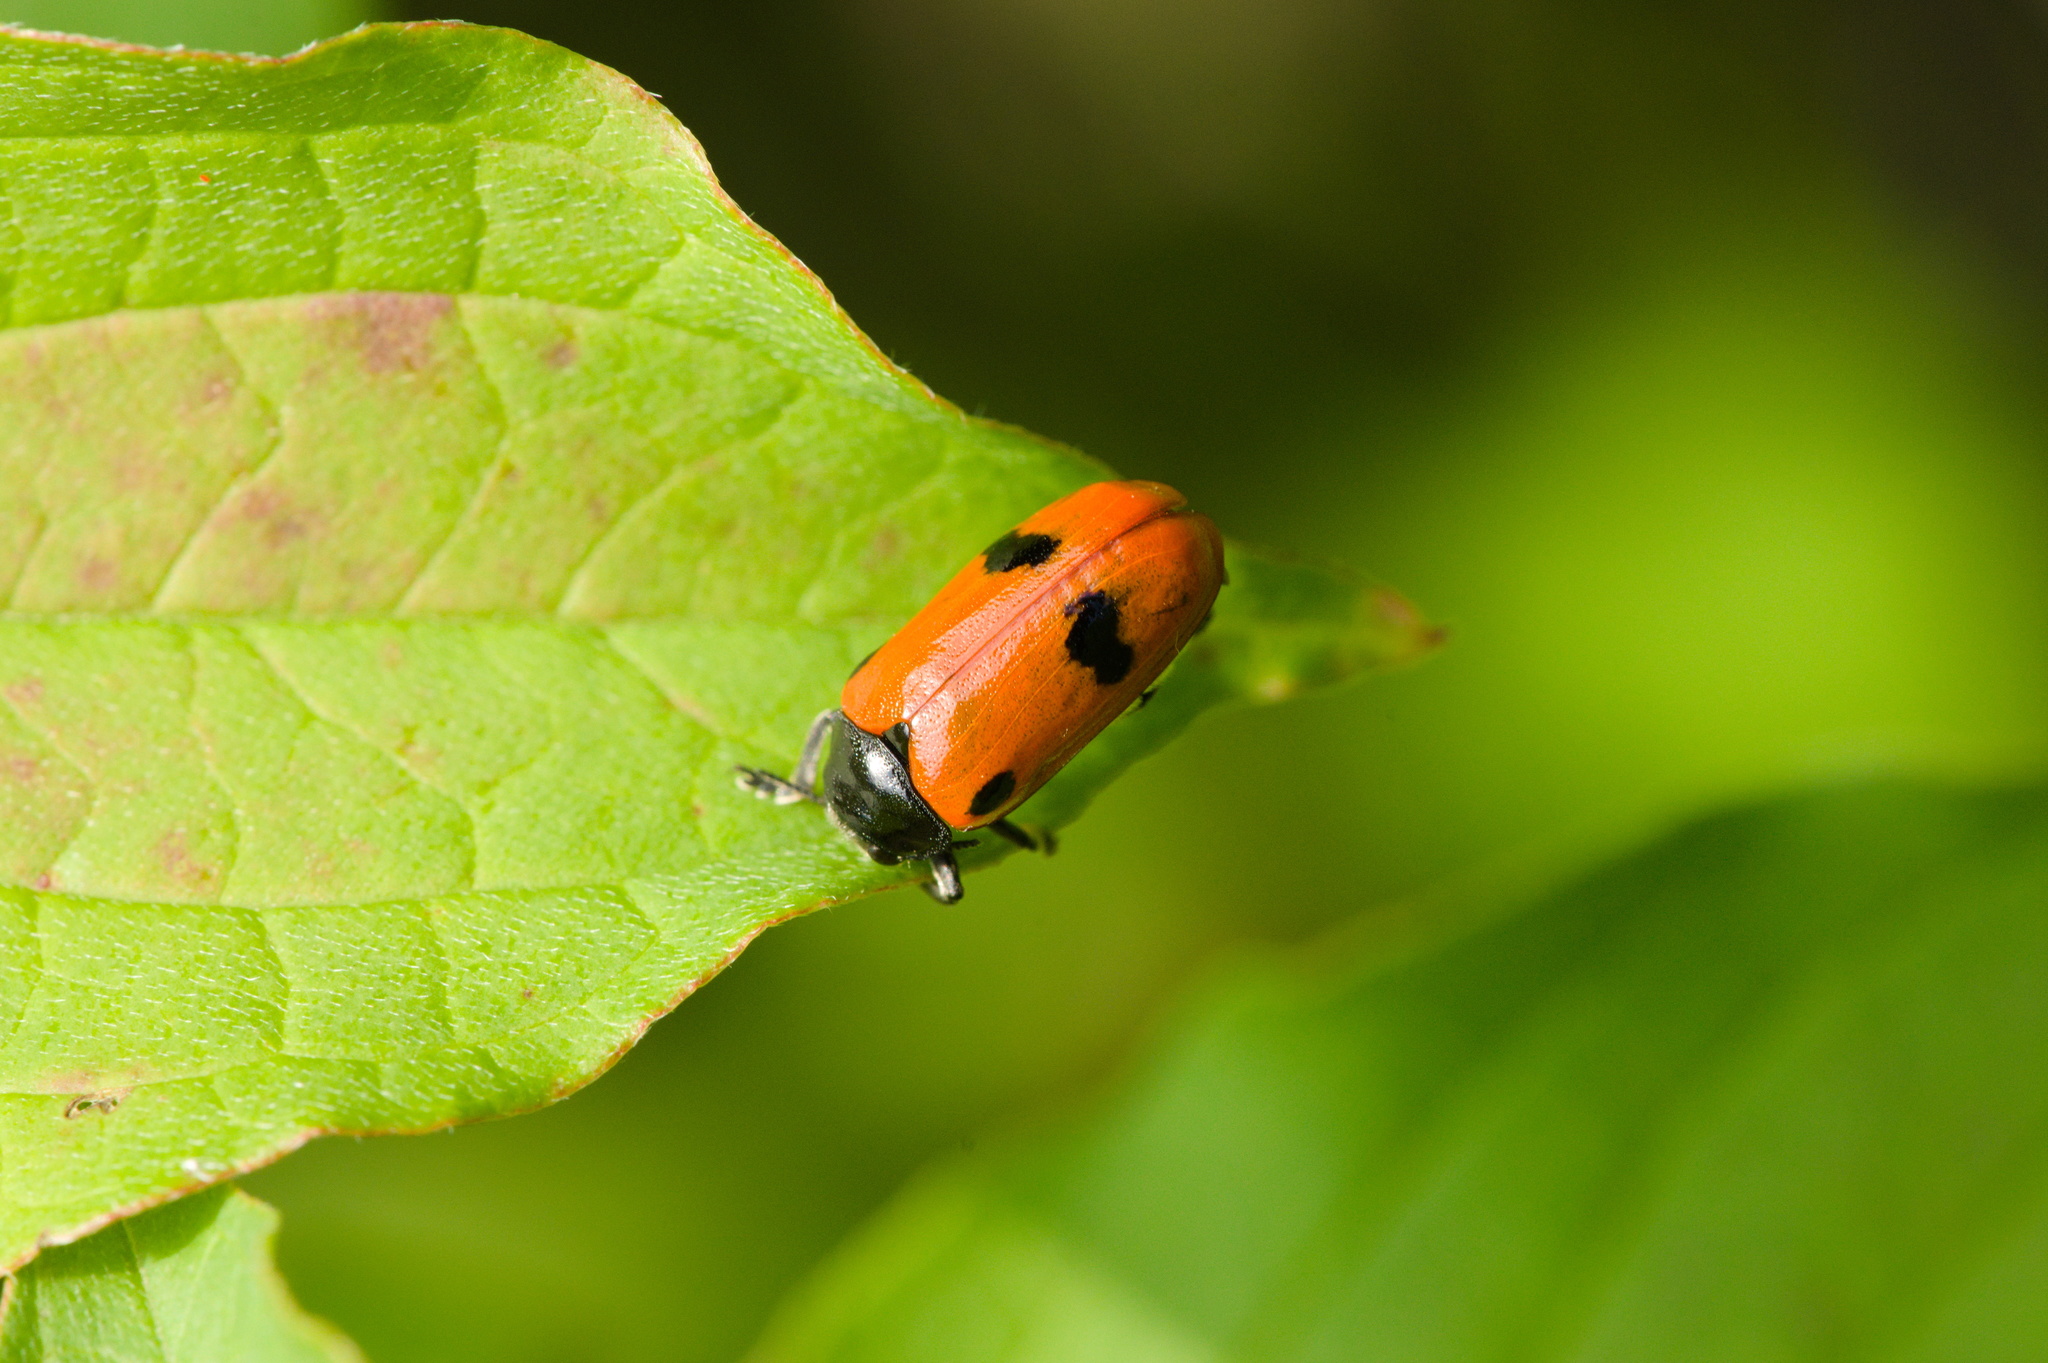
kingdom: Animalia
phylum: Arthropoda
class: Insecta
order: Coleoptera
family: Chrysomelidae
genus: Clytra
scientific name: Clytra quadripunctata
